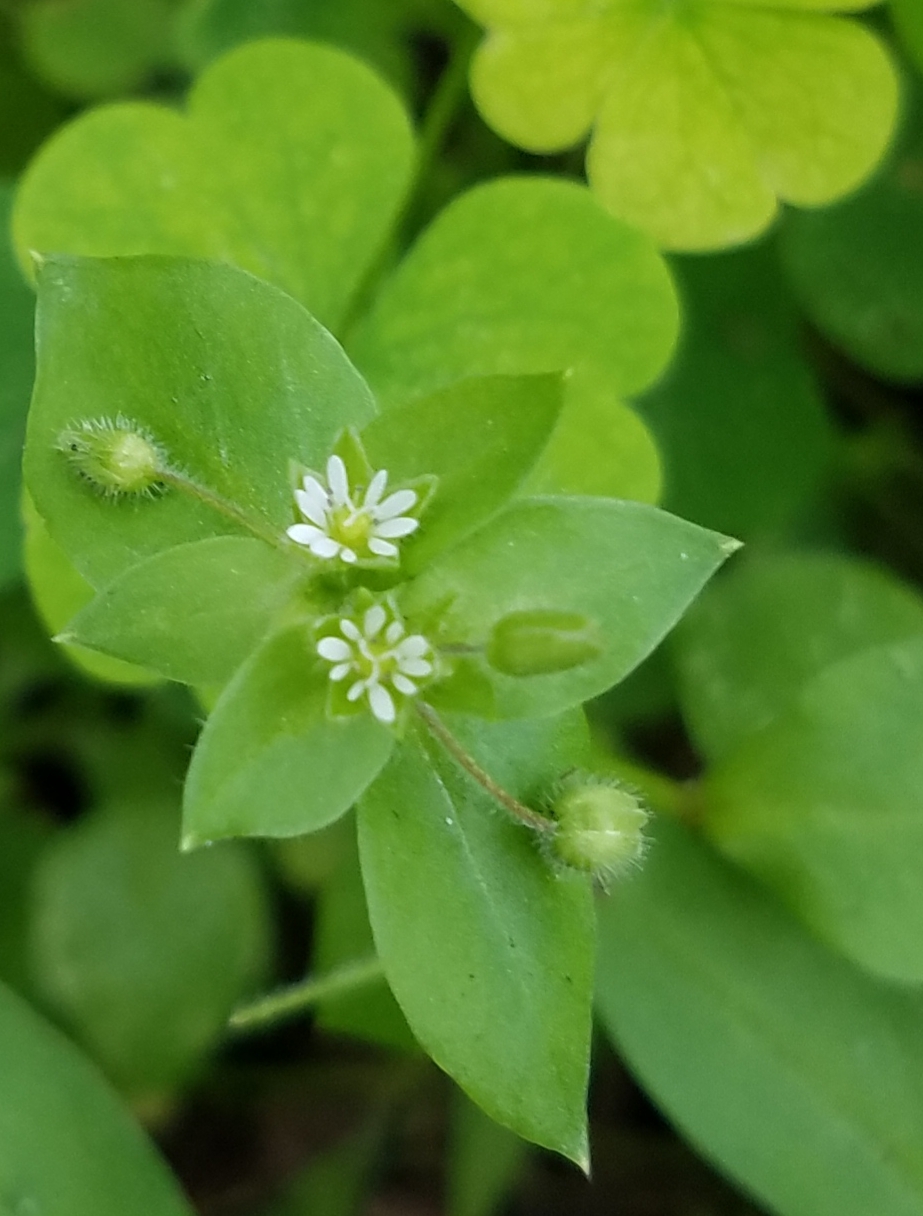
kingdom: Plantae
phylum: Tracheophyta
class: Magnoliopsida
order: Caryophyllales
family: Caryophyllaceae
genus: Stellaria
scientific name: Stellaria media
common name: Common chickweed
